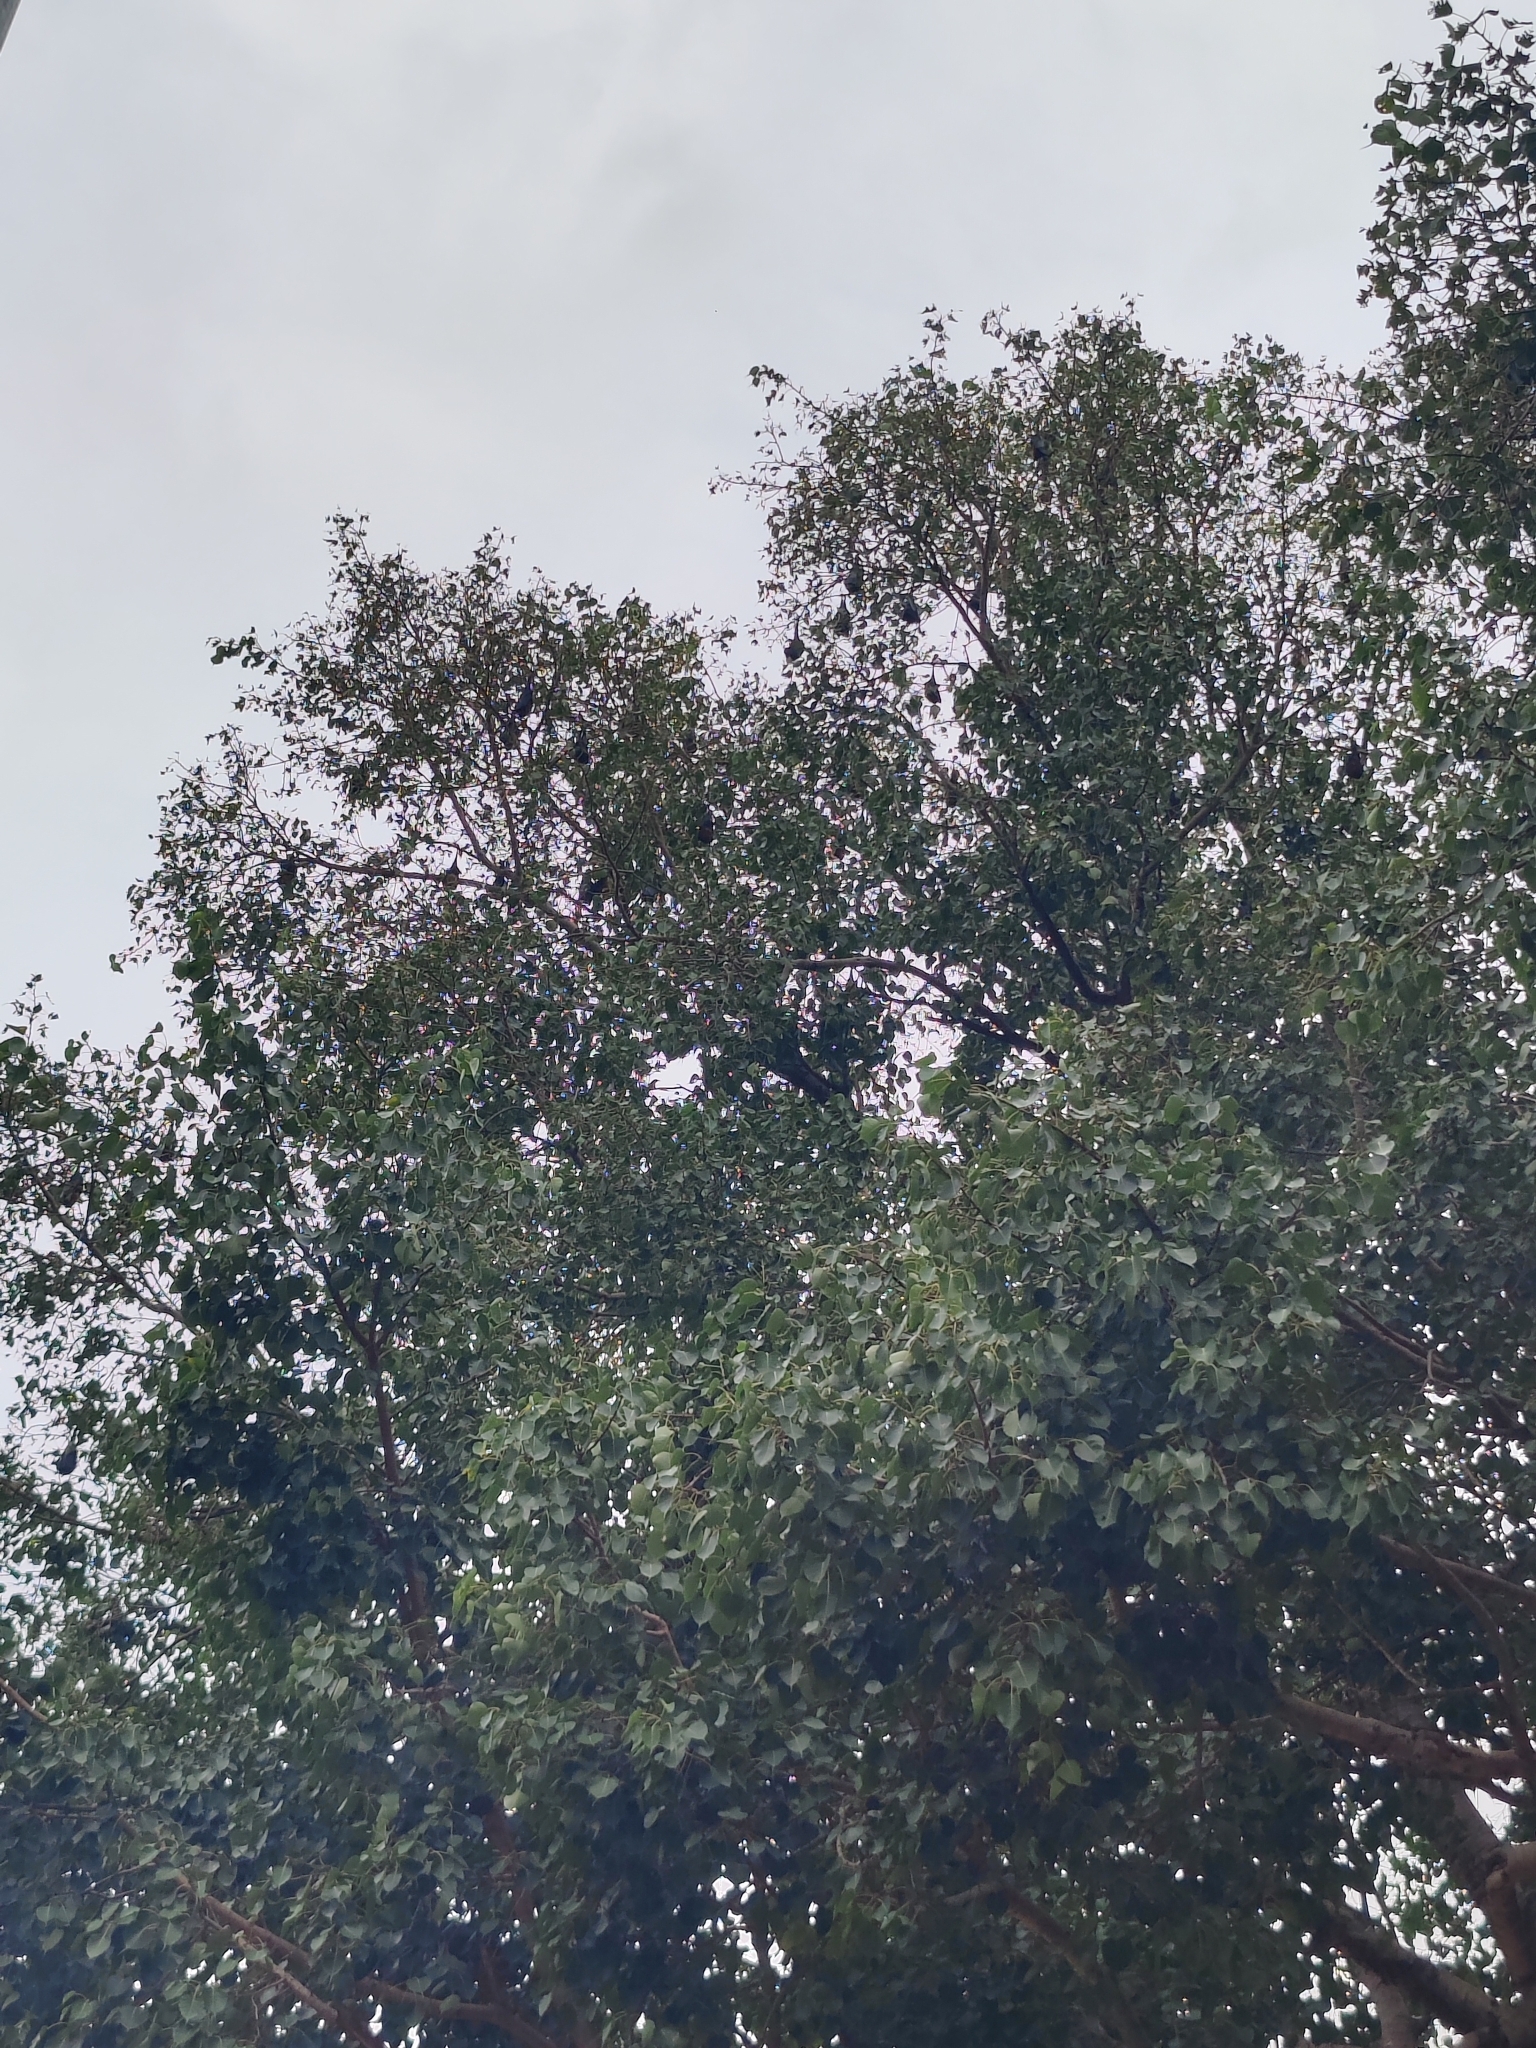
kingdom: Animalia
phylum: Chordata
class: Mammalia
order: Chiroptera
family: Pteropodidae
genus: Pteropus
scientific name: Pteropus vampyrus
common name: Large flying fox
